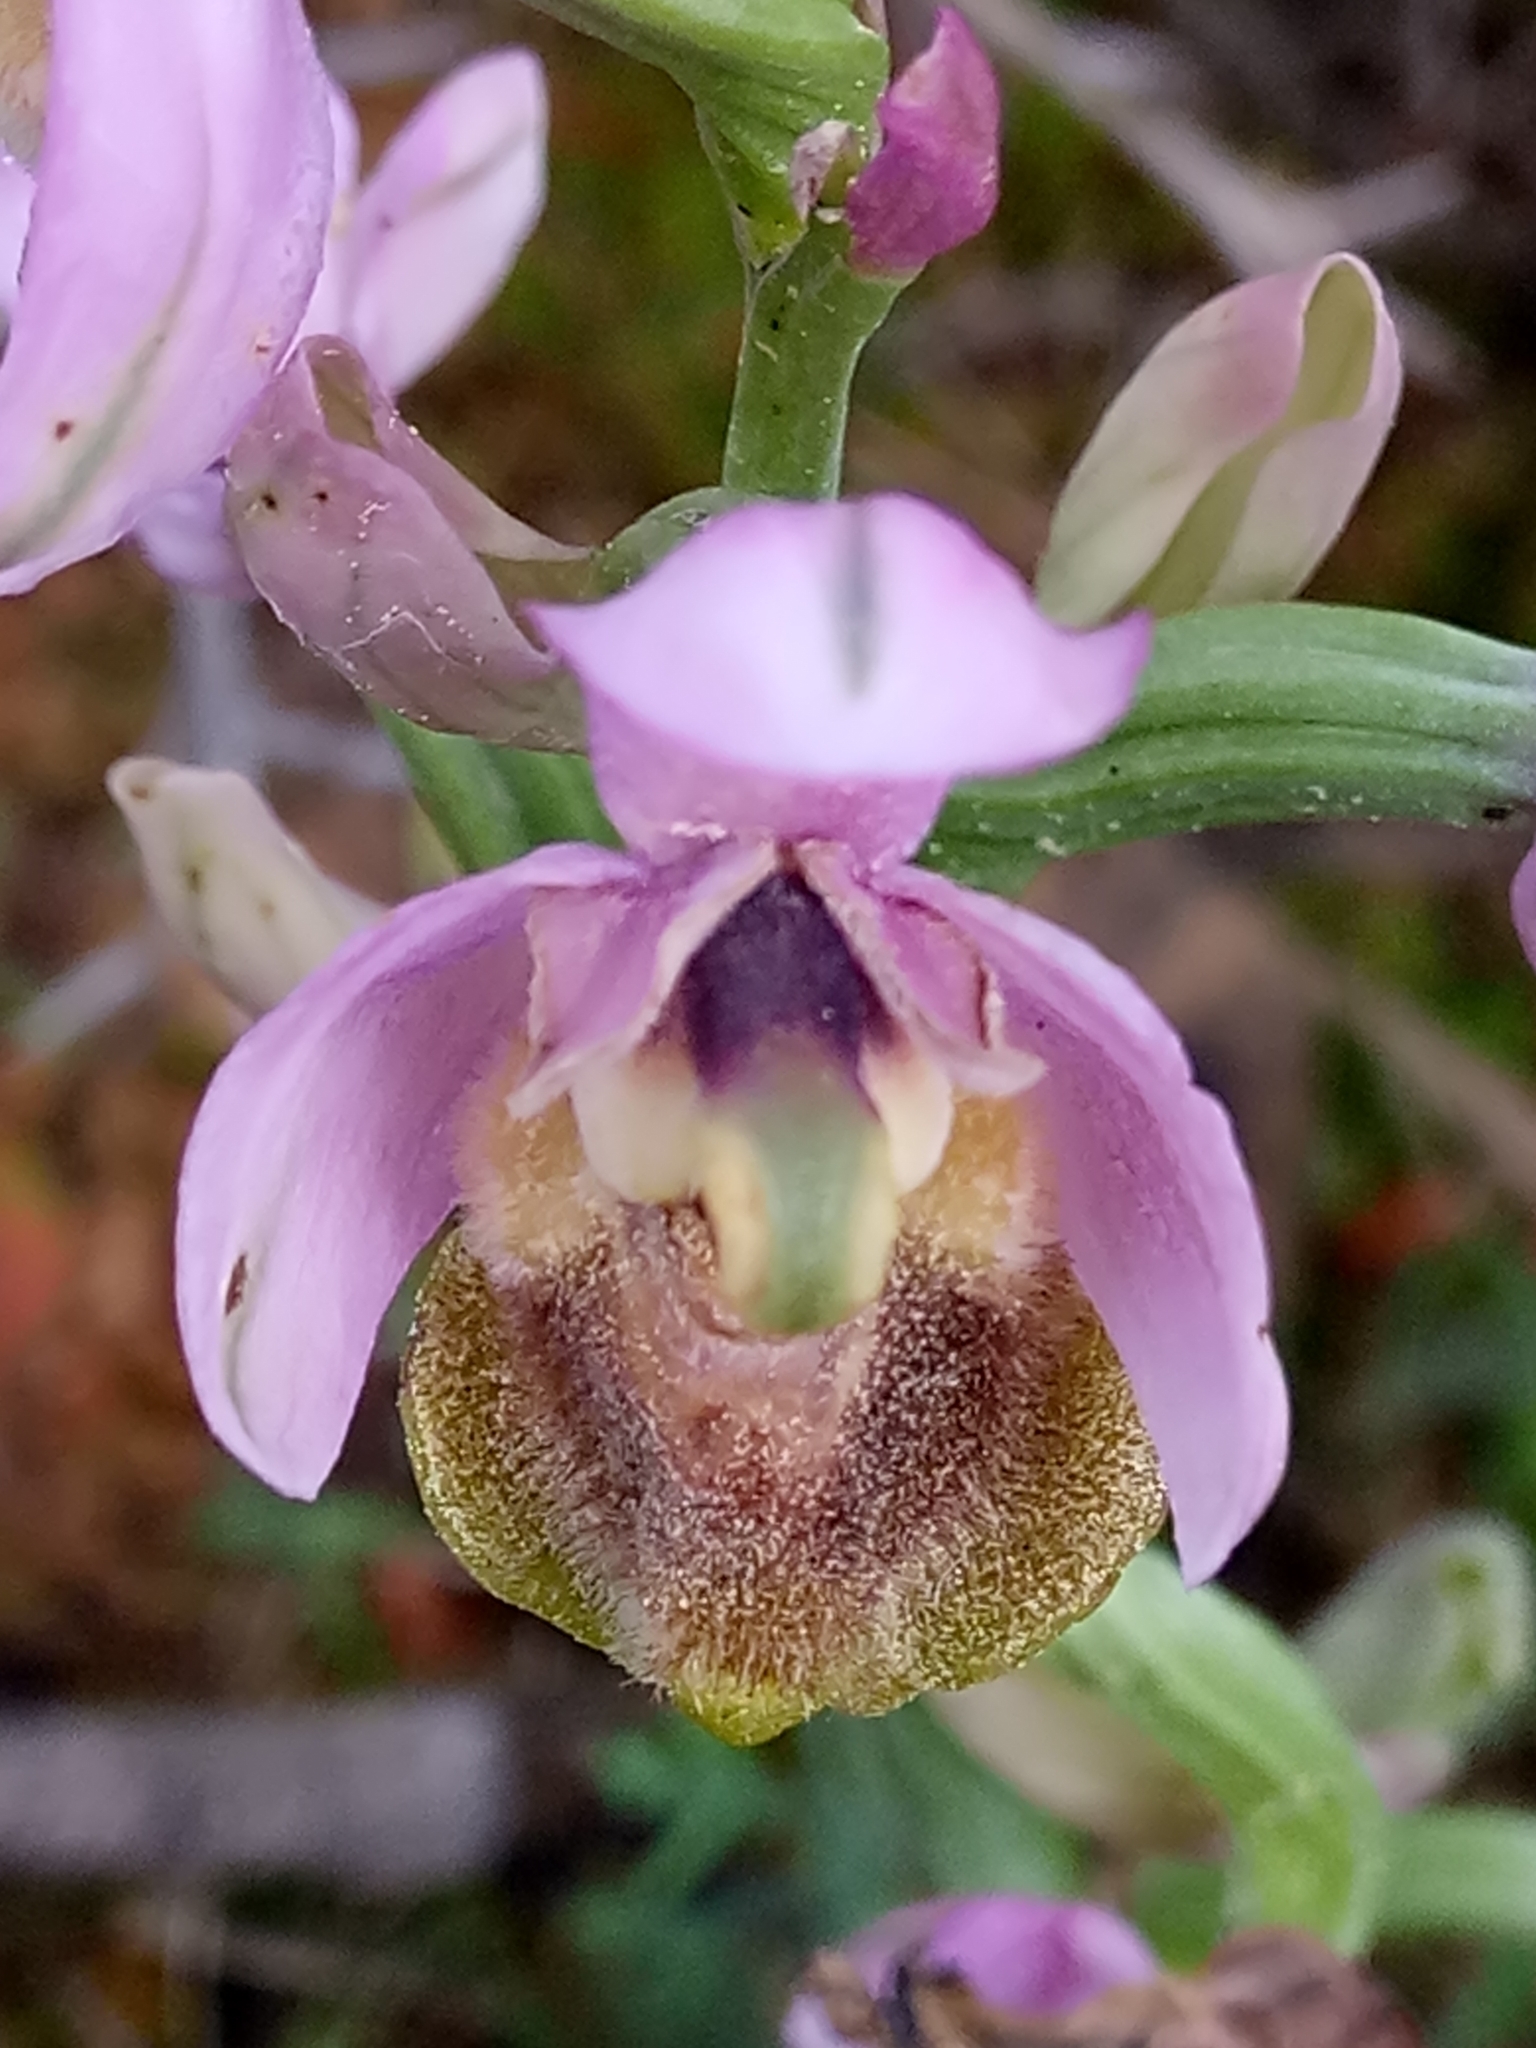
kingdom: Plantae
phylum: Tracheophyta
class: Liliopsida
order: Asparagales
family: Orchidaceae
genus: Ophrys
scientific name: Ophrys tenthredinifera
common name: Sawfly orchid
